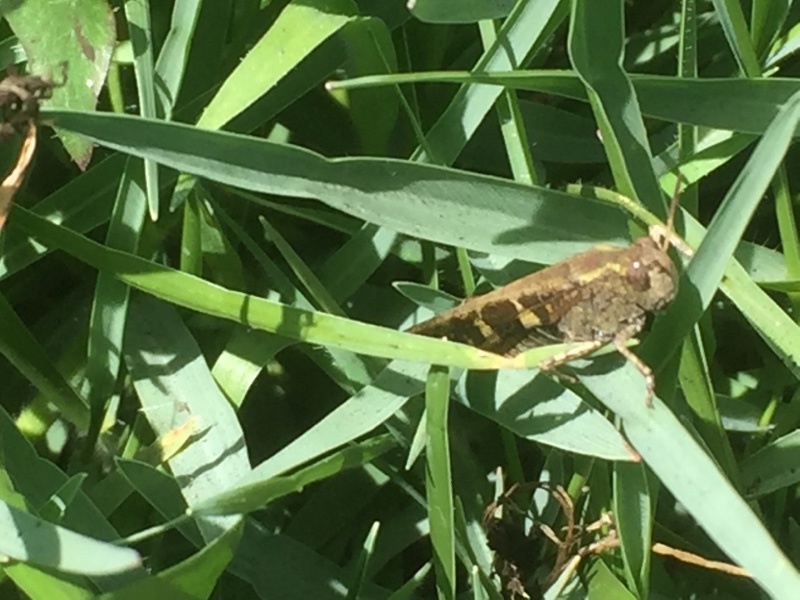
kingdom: Animalia
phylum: Arthropoda
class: Insecta
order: Orthoptera
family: Acrididae
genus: Aiolopus
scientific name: Aiolopus strepens
